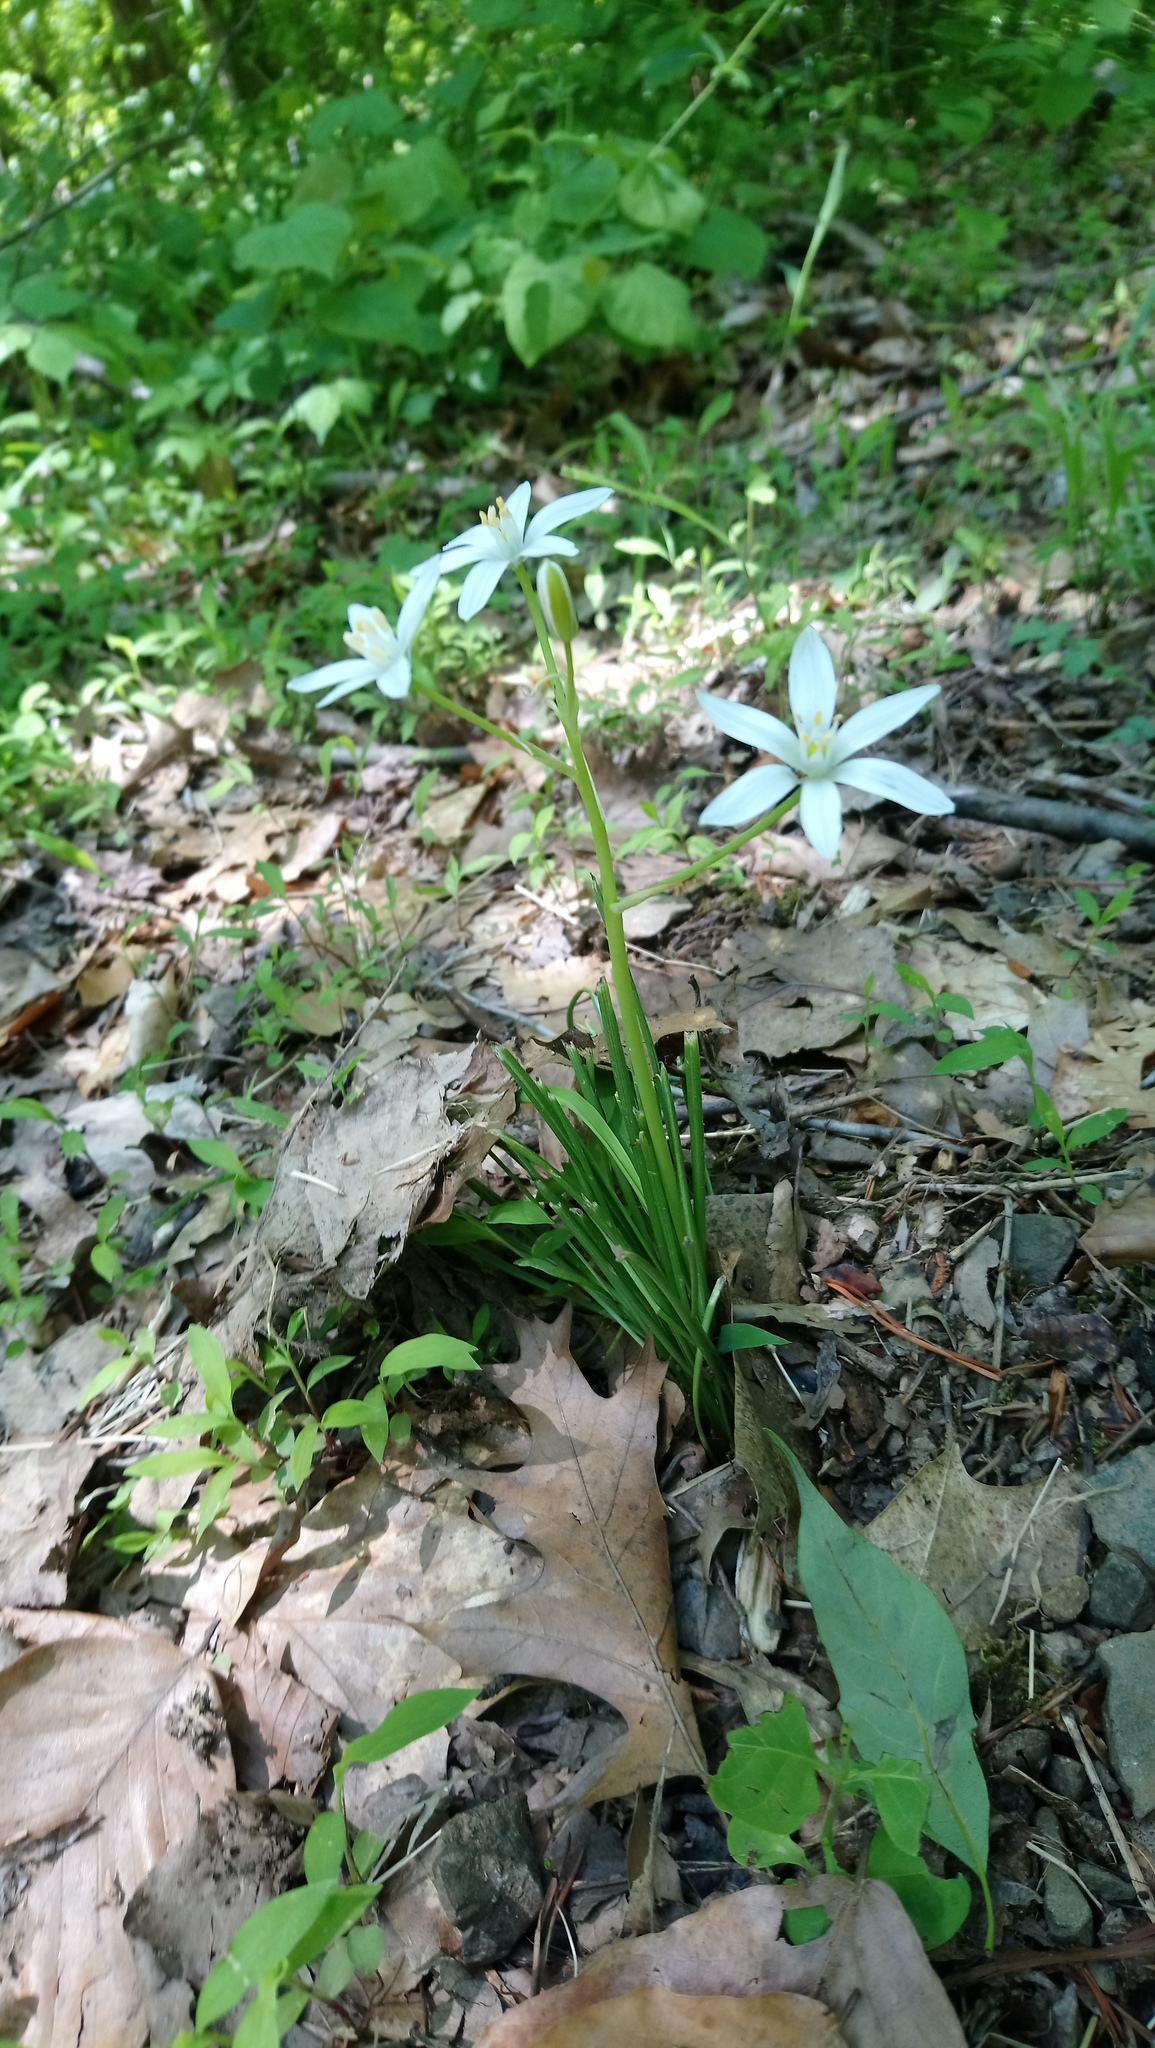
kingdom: Plantae
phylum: Tracheophyta
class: Liliopsida
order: Asparagales
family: Asparagaceae
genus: Ornithogalum
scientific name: Ornithogalum umbellatum
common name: Garden star-of-bethlehem
